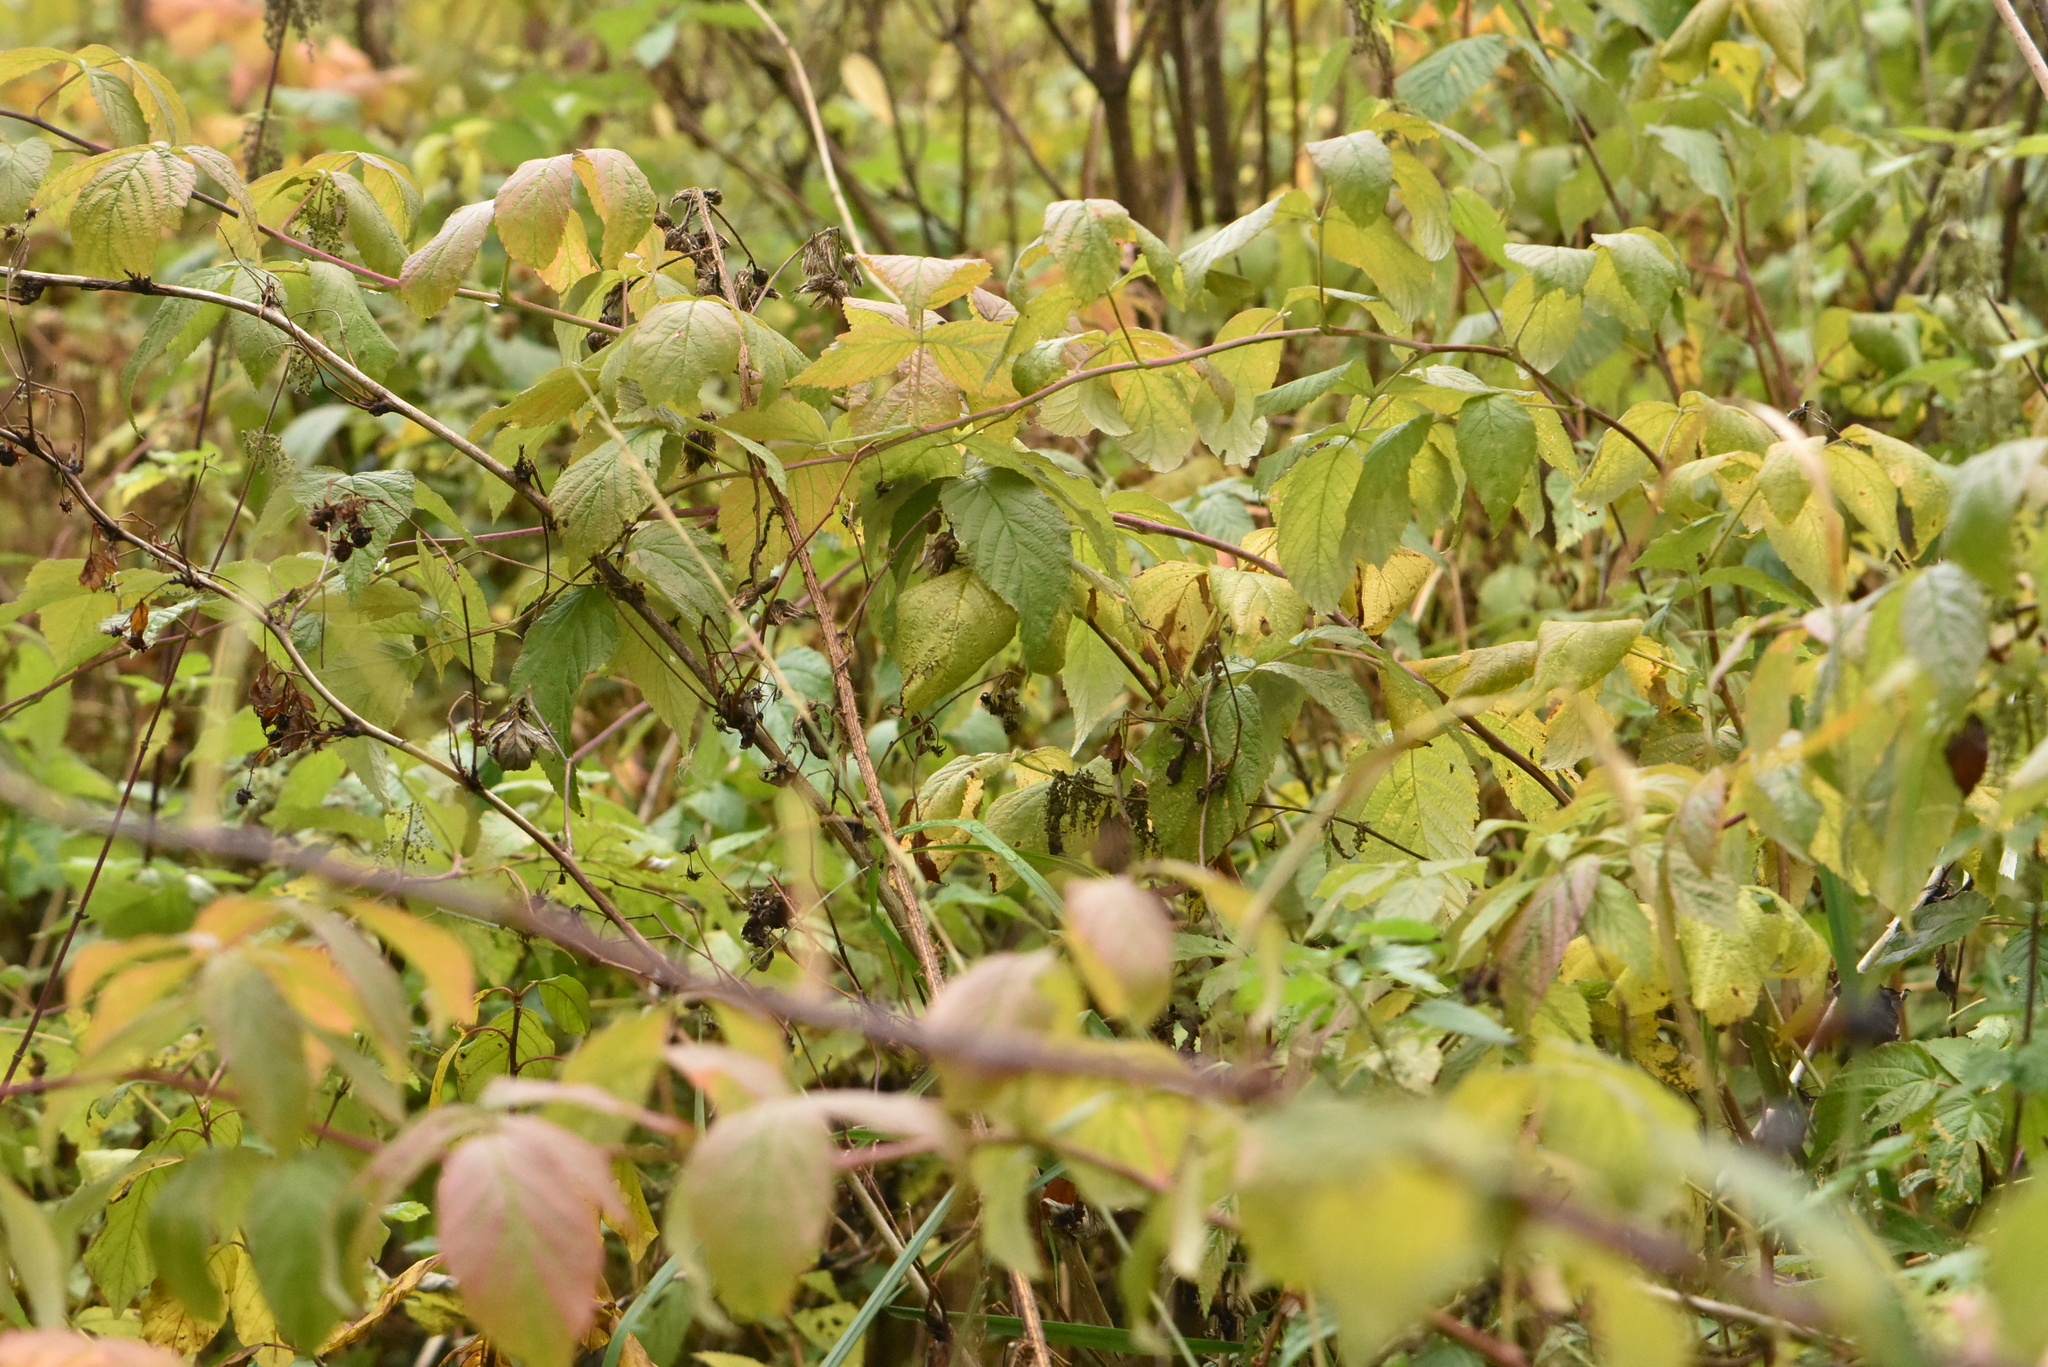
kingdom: Plantae
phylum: Tracheophyta
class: Magnoliopsida
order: Rosales
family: Rosaceae
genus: Rubus
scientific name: Rubus idaeus
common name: Raspberry
